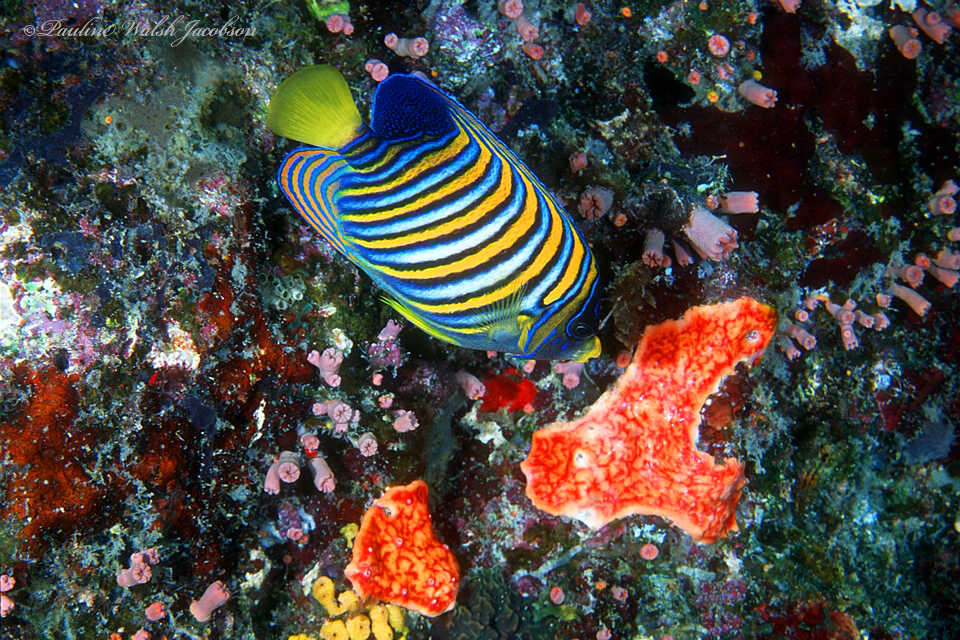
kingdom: Animalia
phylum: Chordata
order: Perciformes
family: Pomacanthidae
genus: Pygoplites
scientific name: Pygoplites diacanthus
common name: Regal angelfish
